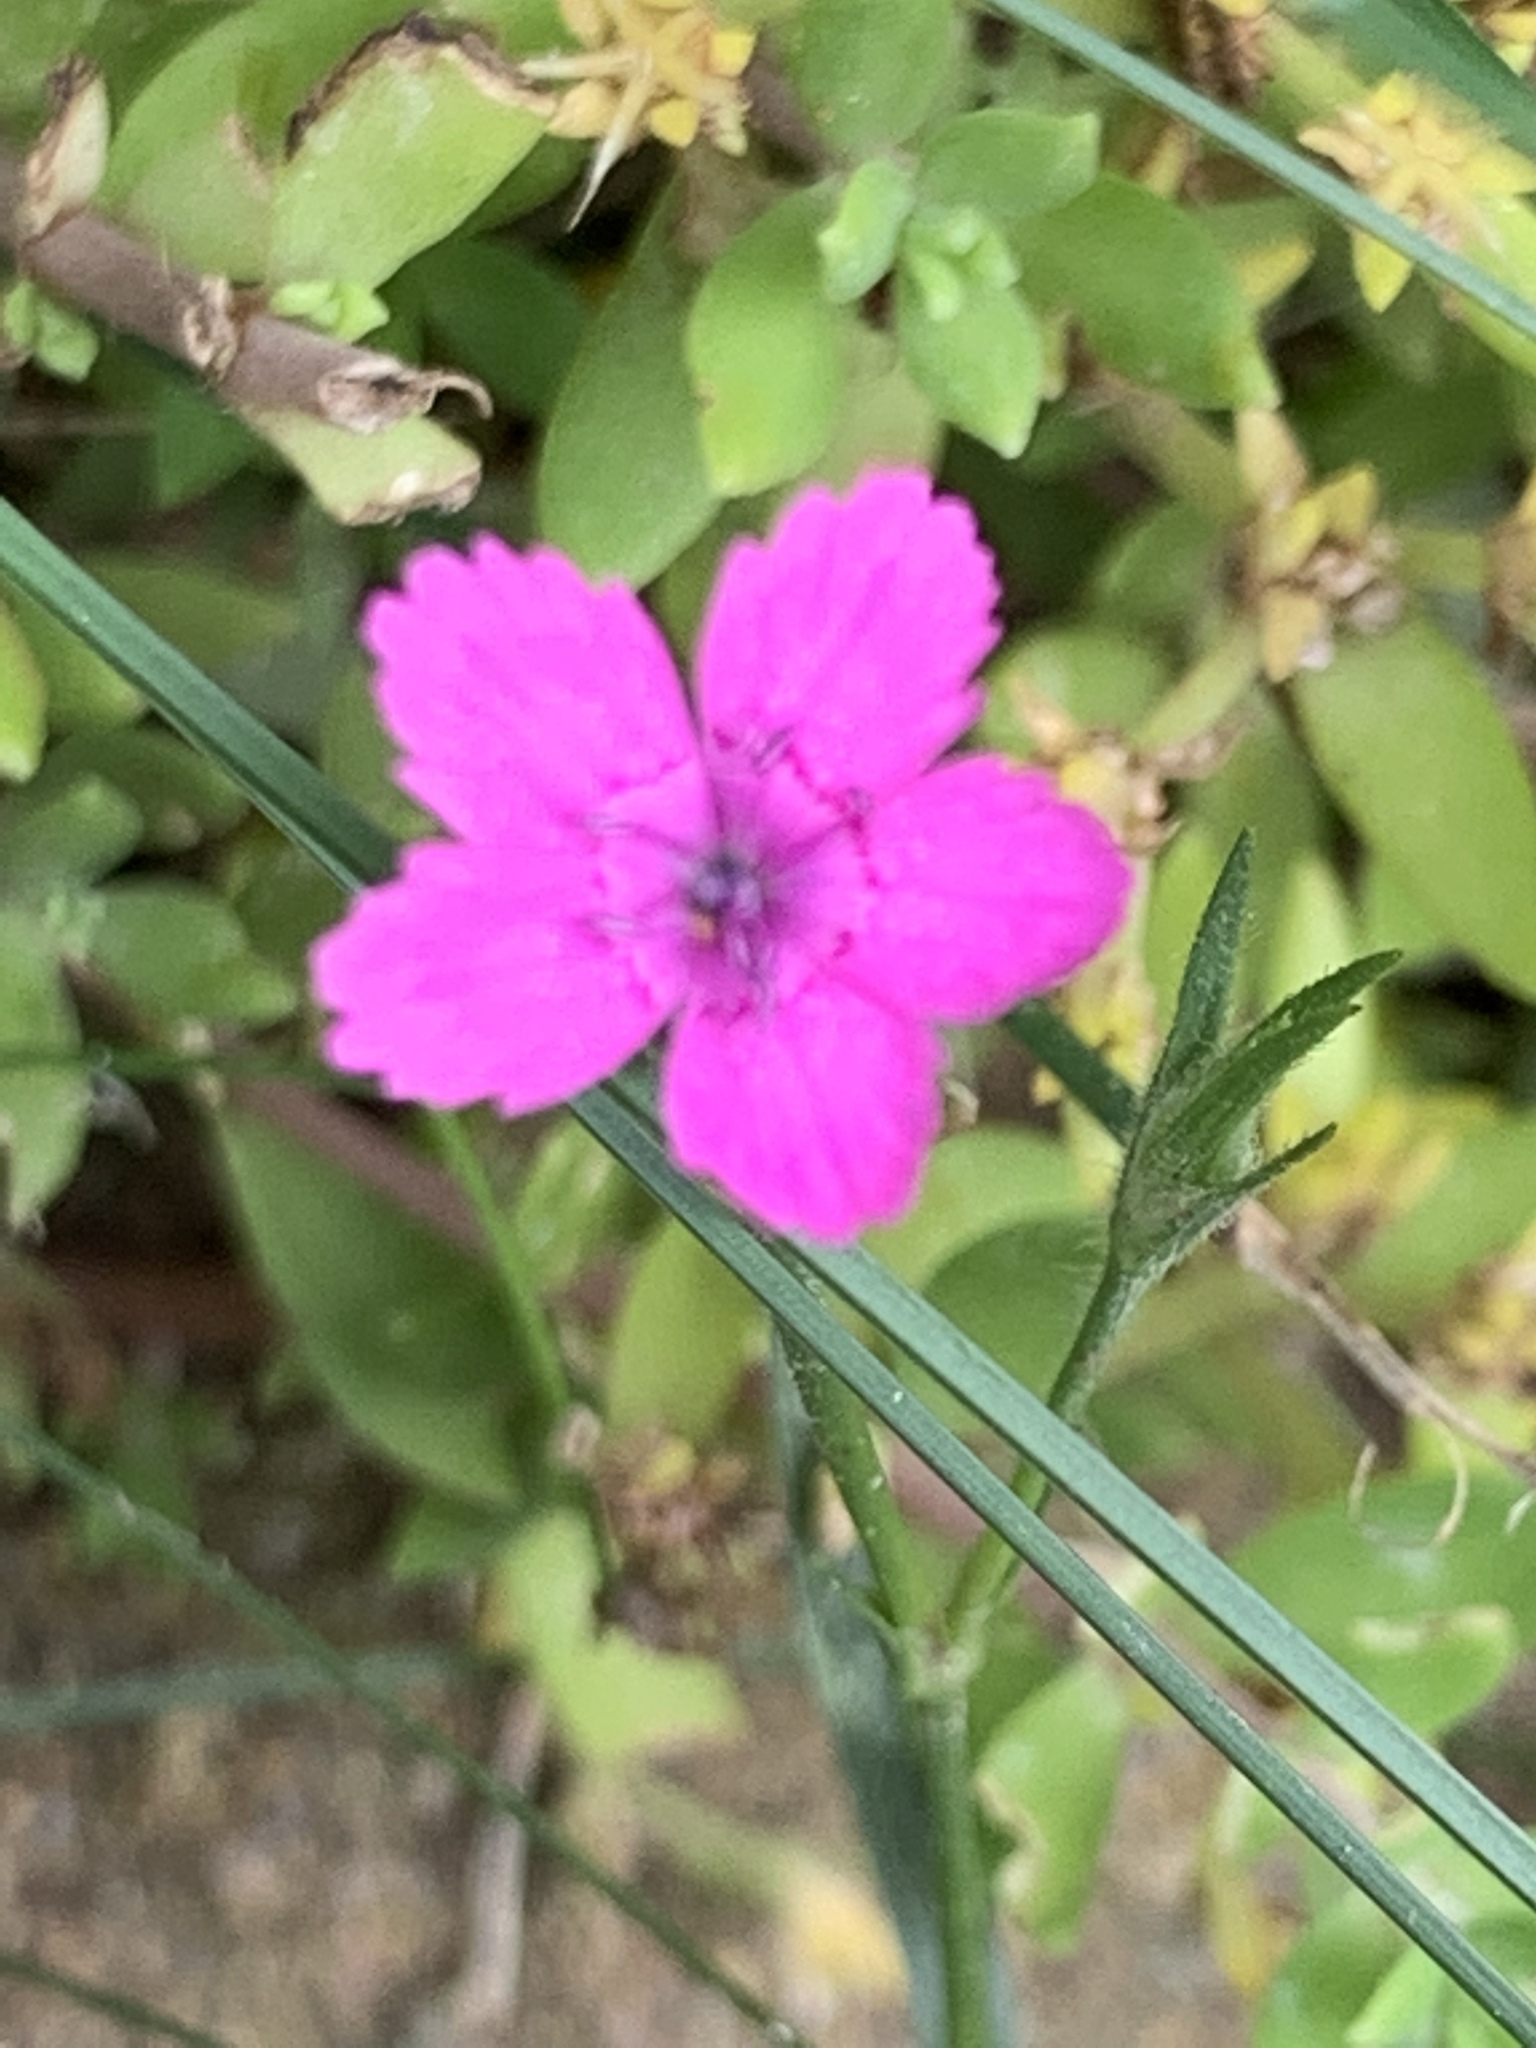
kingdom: Plantae
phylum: Tracheophyta
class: Magnoliopsida
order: Caryophyllales
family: Caryophyllaceae
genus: Dianthus
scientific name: Dianthus deltoides
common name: Maiden pink
